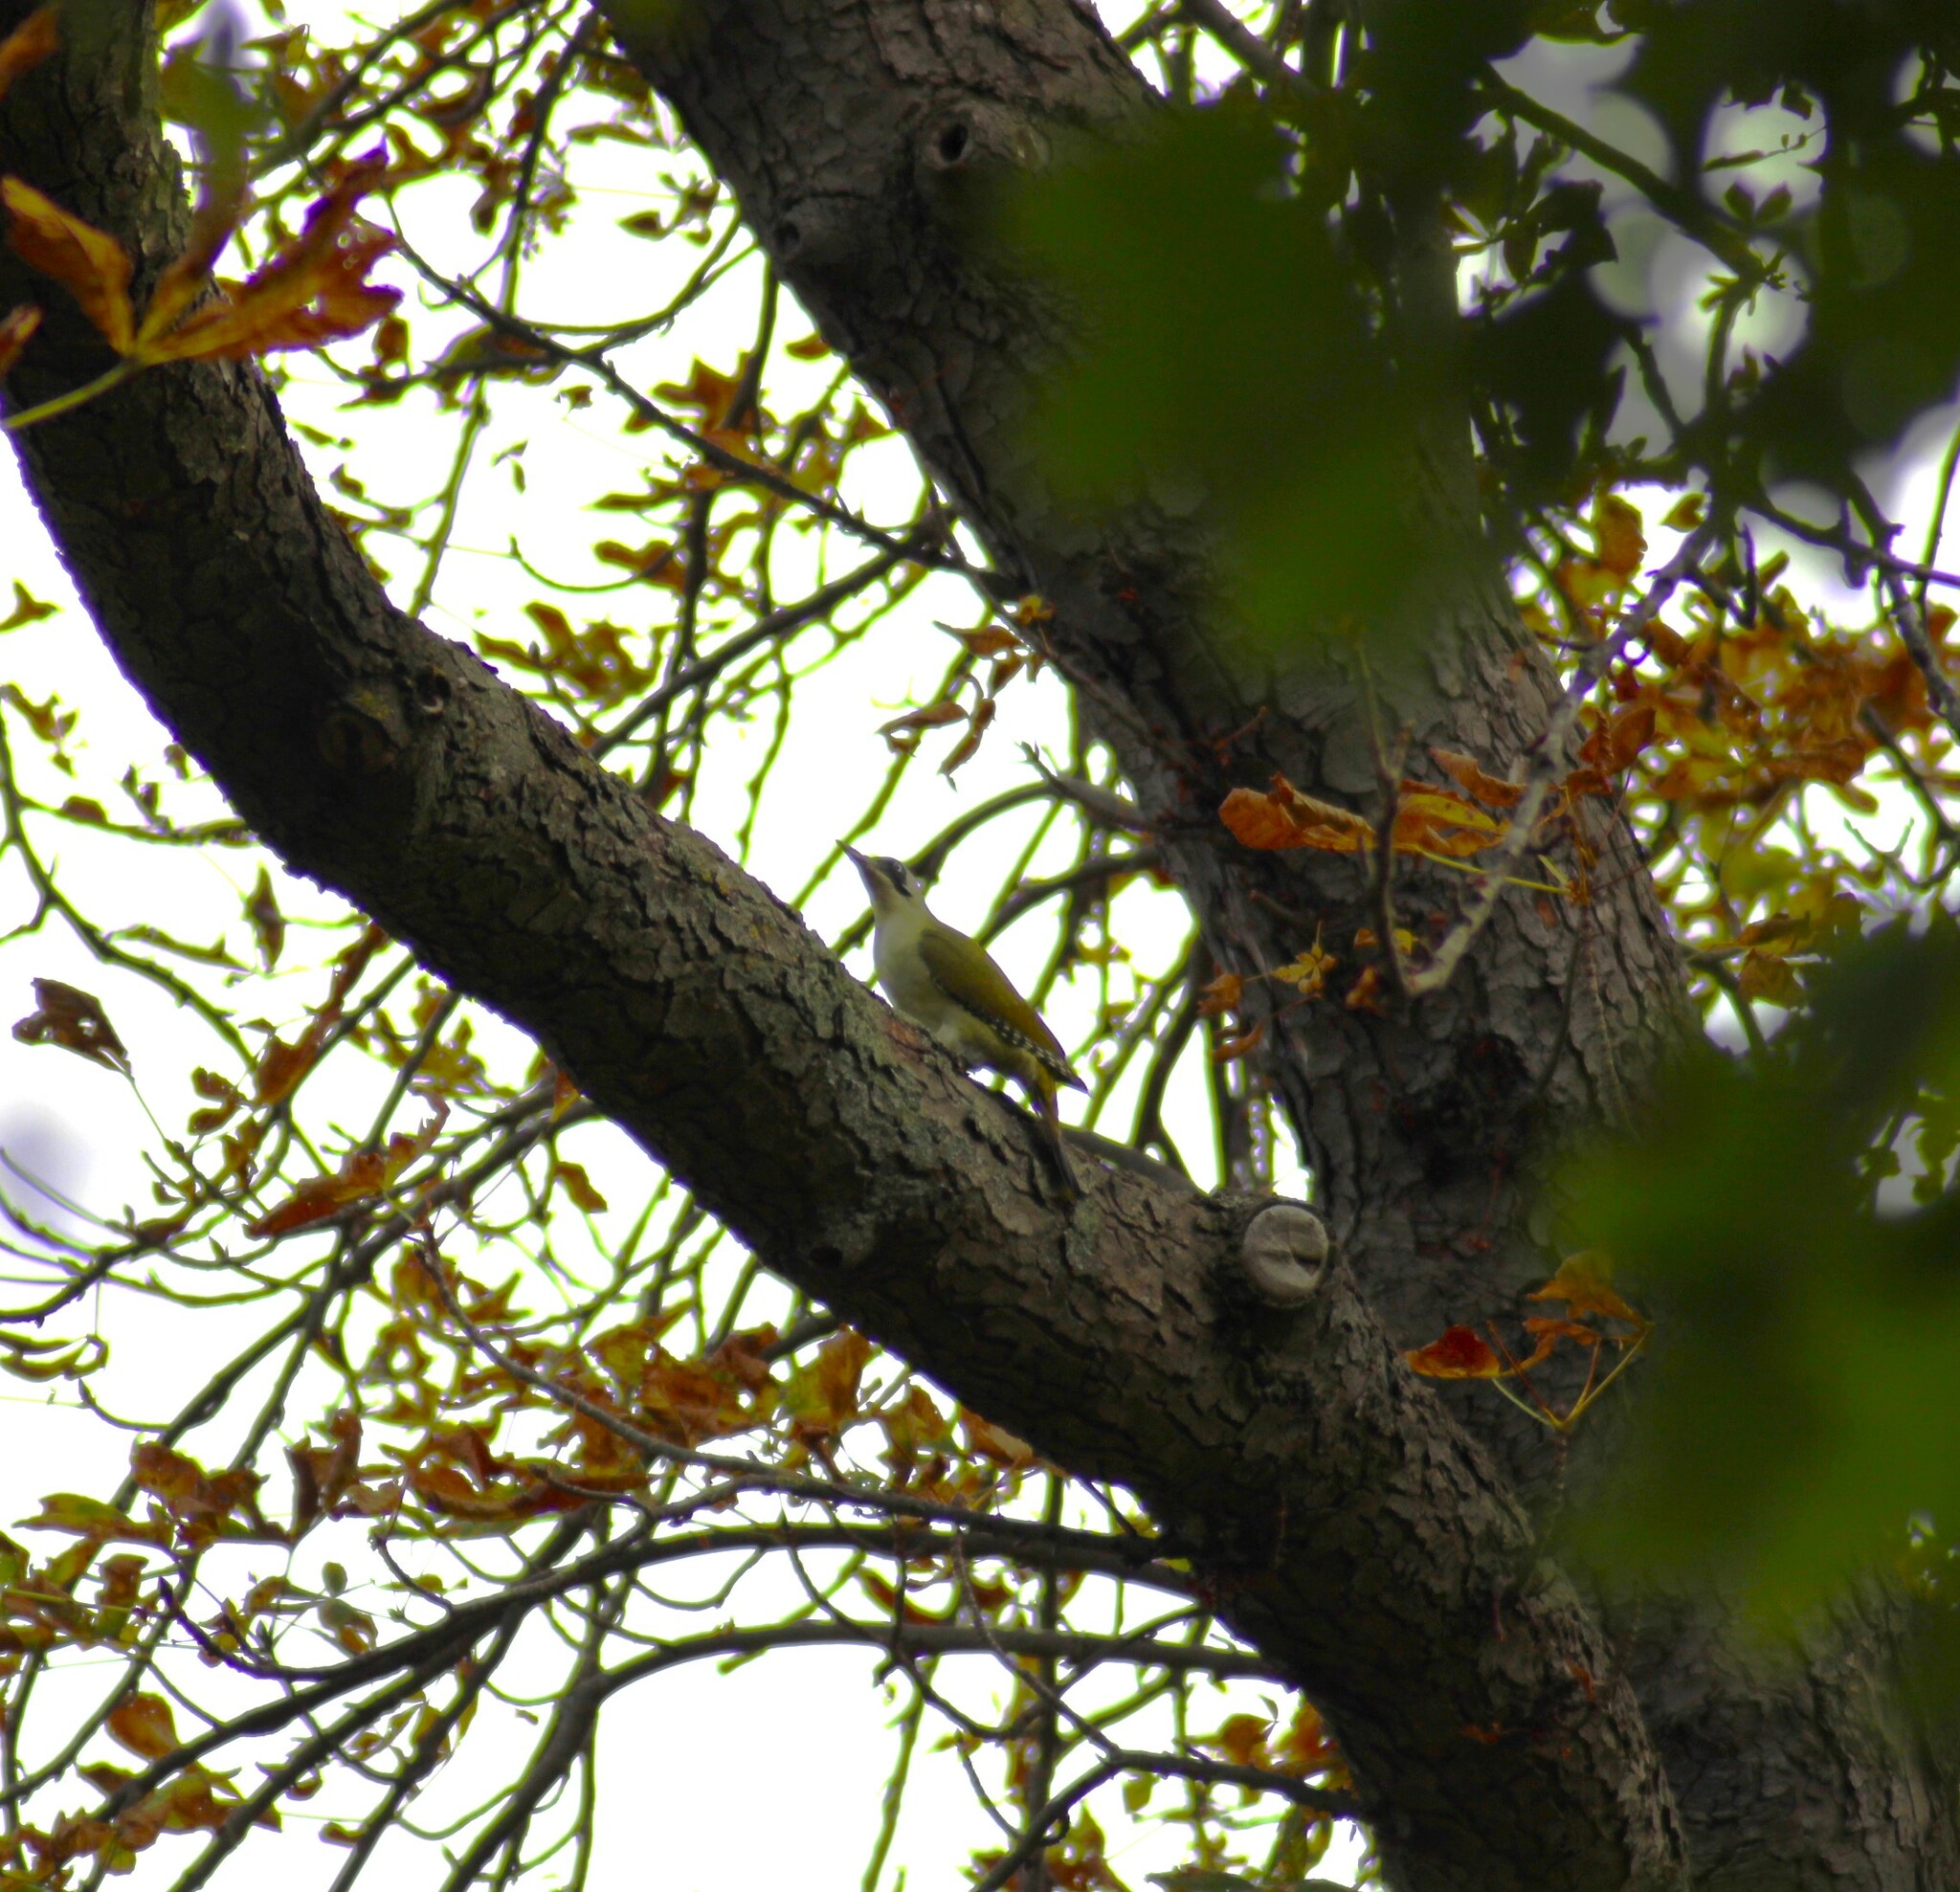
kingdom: Animalia
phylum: Chordata
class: Aves
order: Piciformes
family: Picidae
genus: Picus
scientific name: Picus viridis
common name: European green woodpecker
